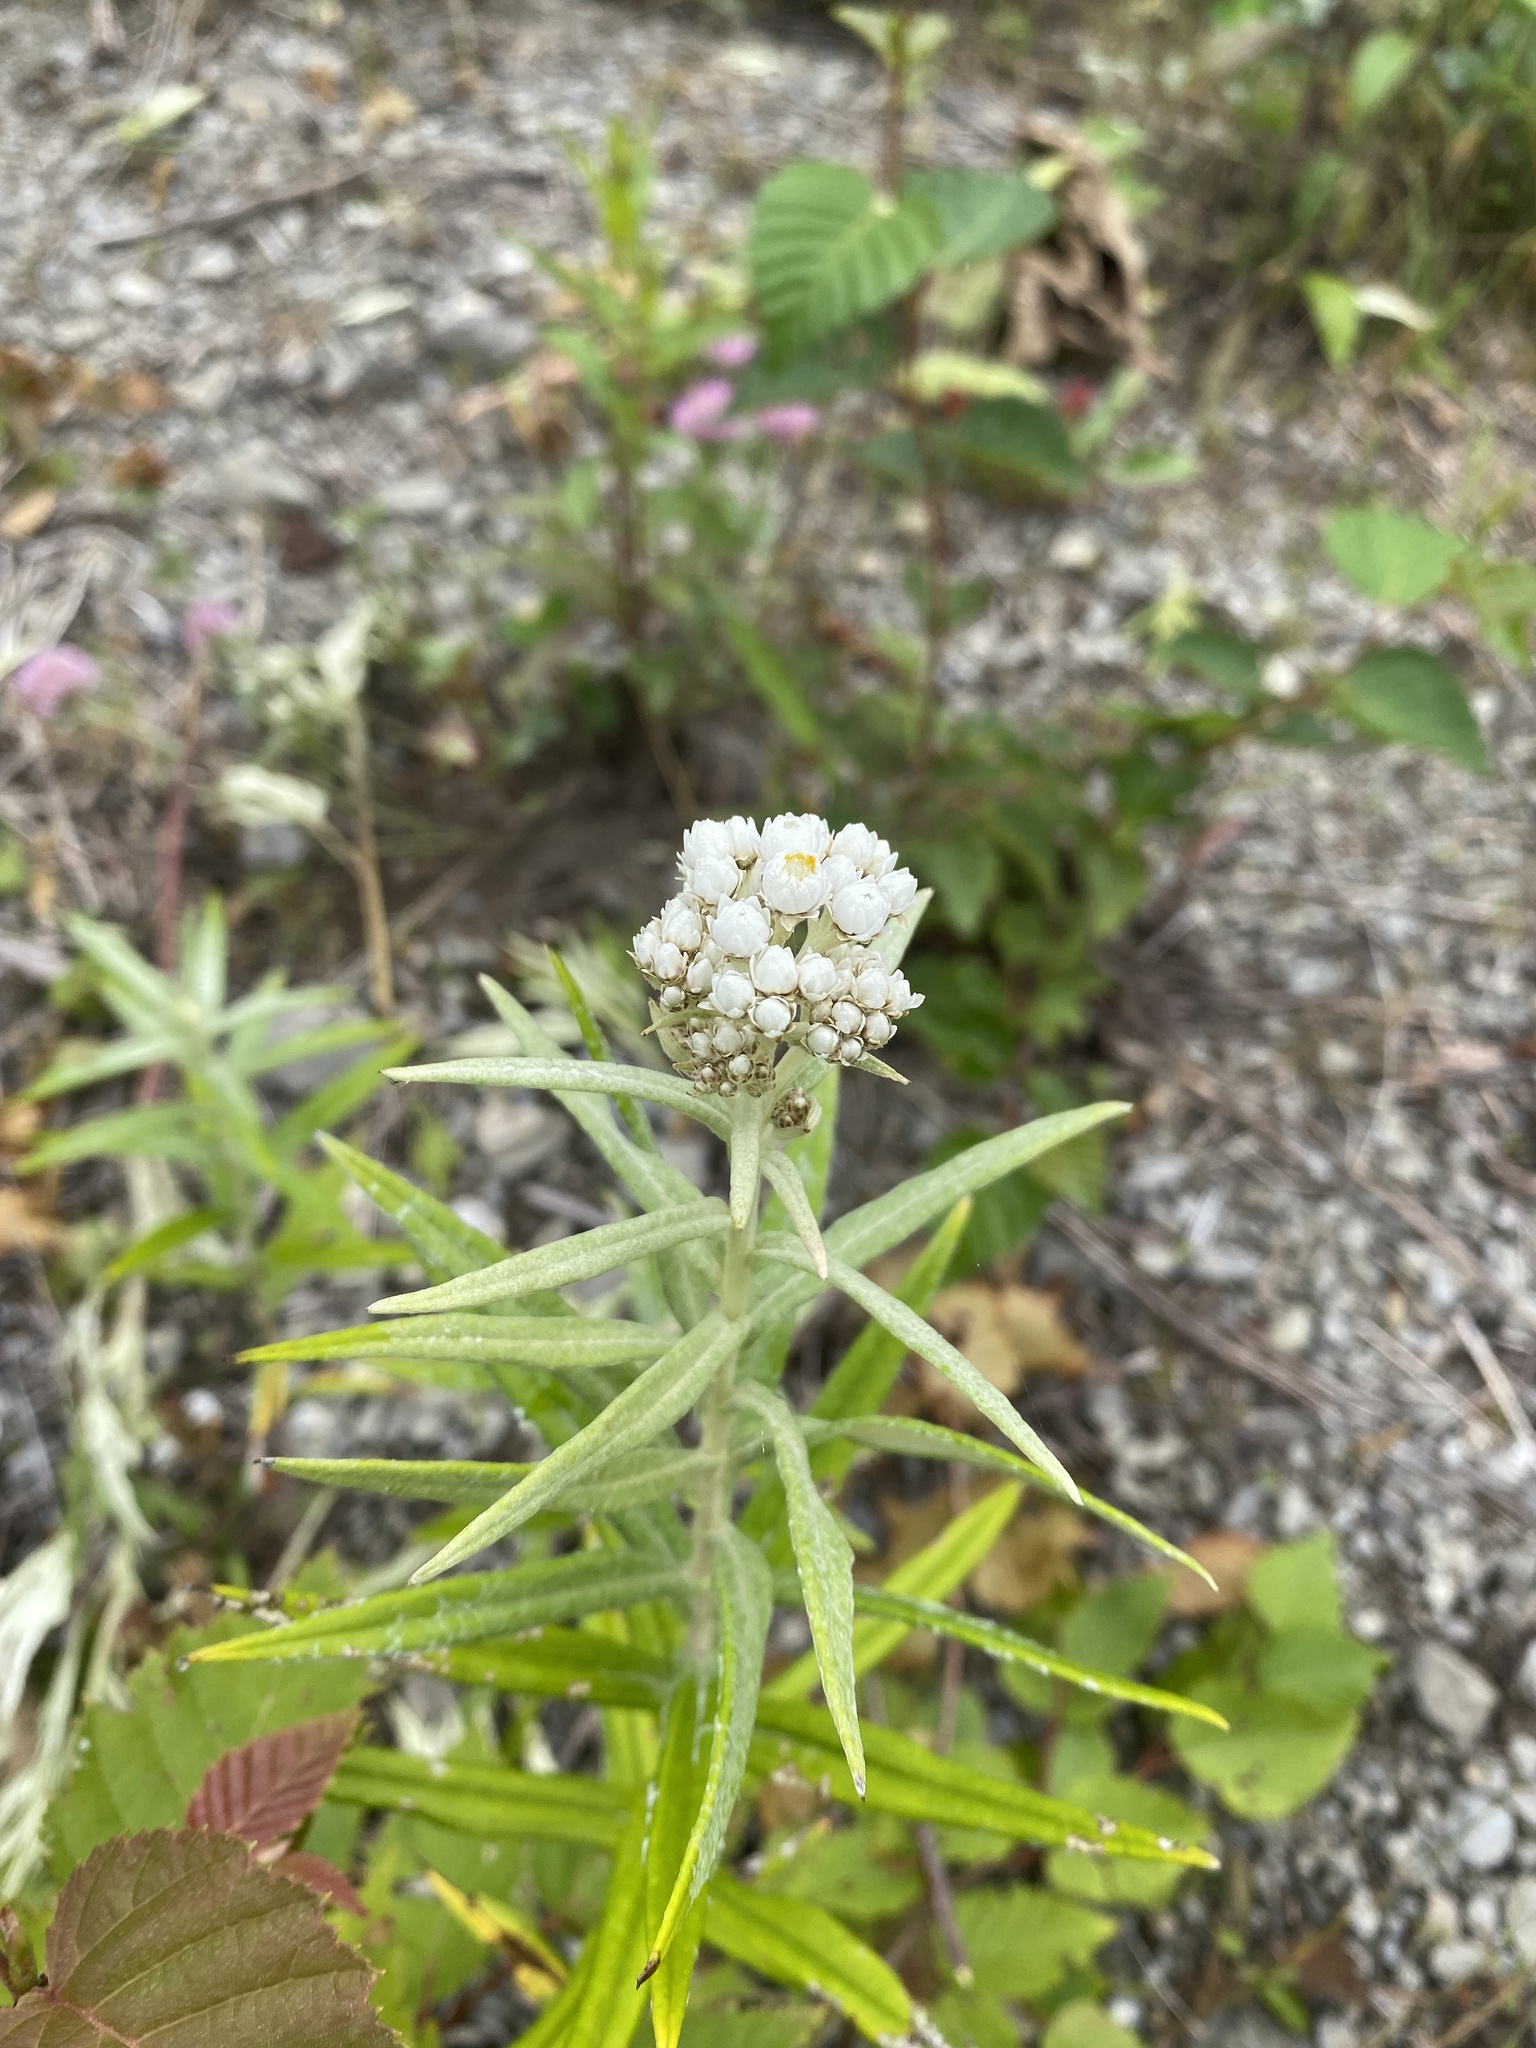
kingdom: Plantae
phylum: Tracheophyta
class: Magnoliopsida
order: Asterales
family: Asteraceae
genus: Anaphalis
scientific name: Anaphalis margaritacea
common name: Pearly everlasting
